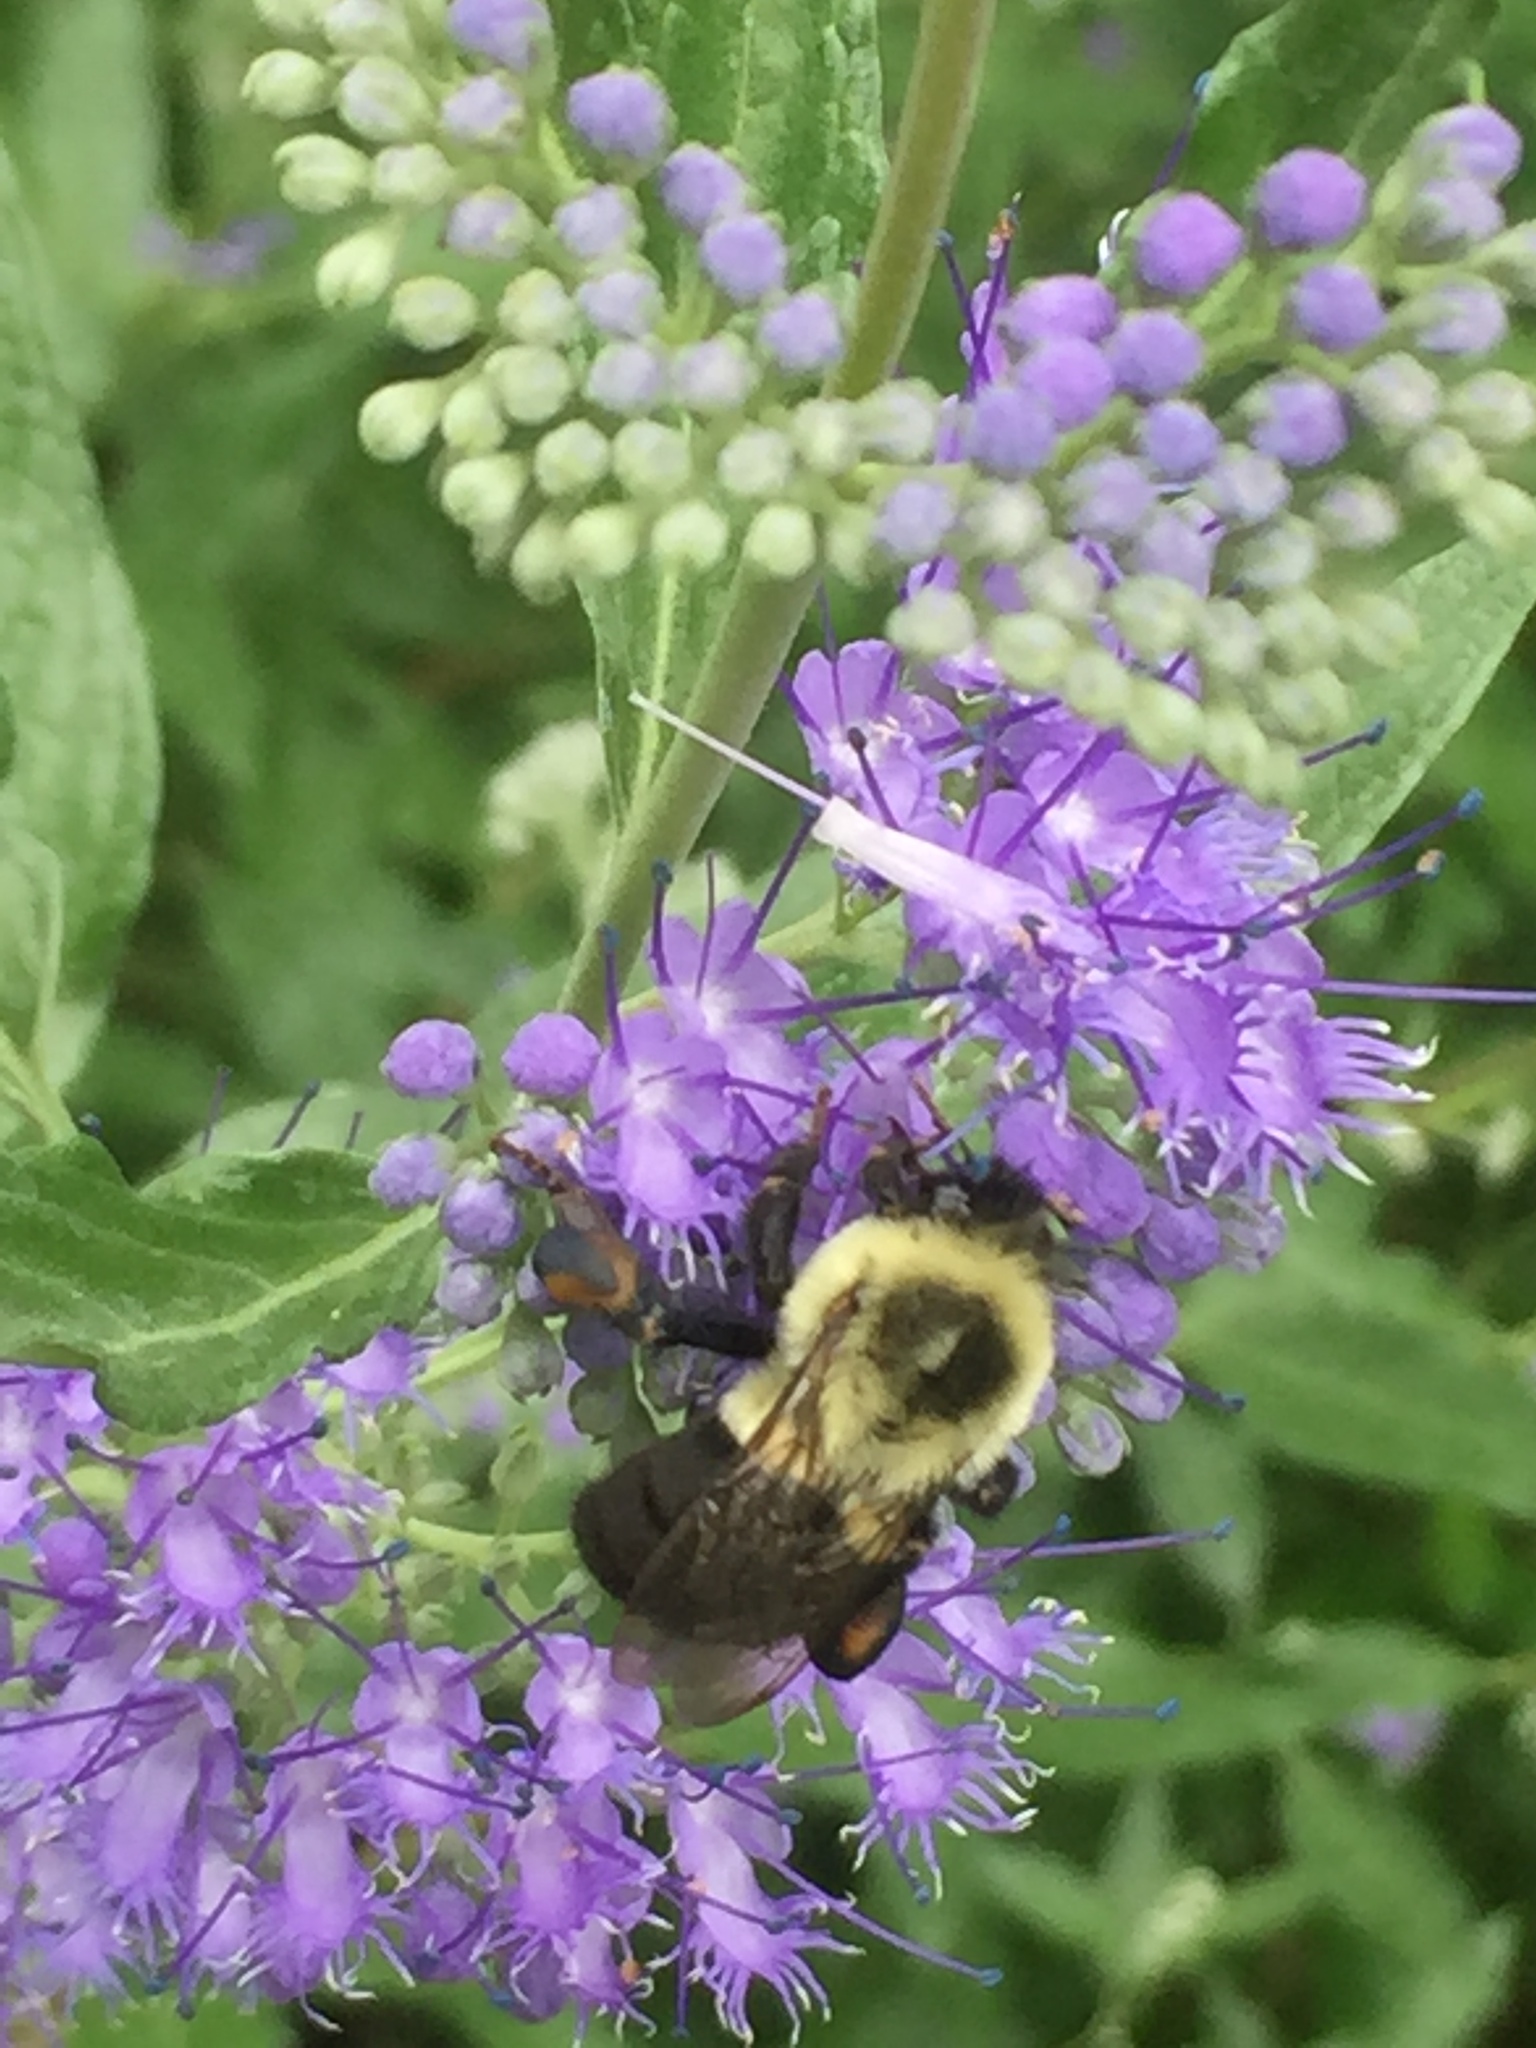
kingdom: Animalia
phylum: Arthropoda
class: Insecta
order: Hymenoptera
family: Apidae
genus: Bombus
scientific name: Bombus impatiens
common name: Common eastern bumble bee
